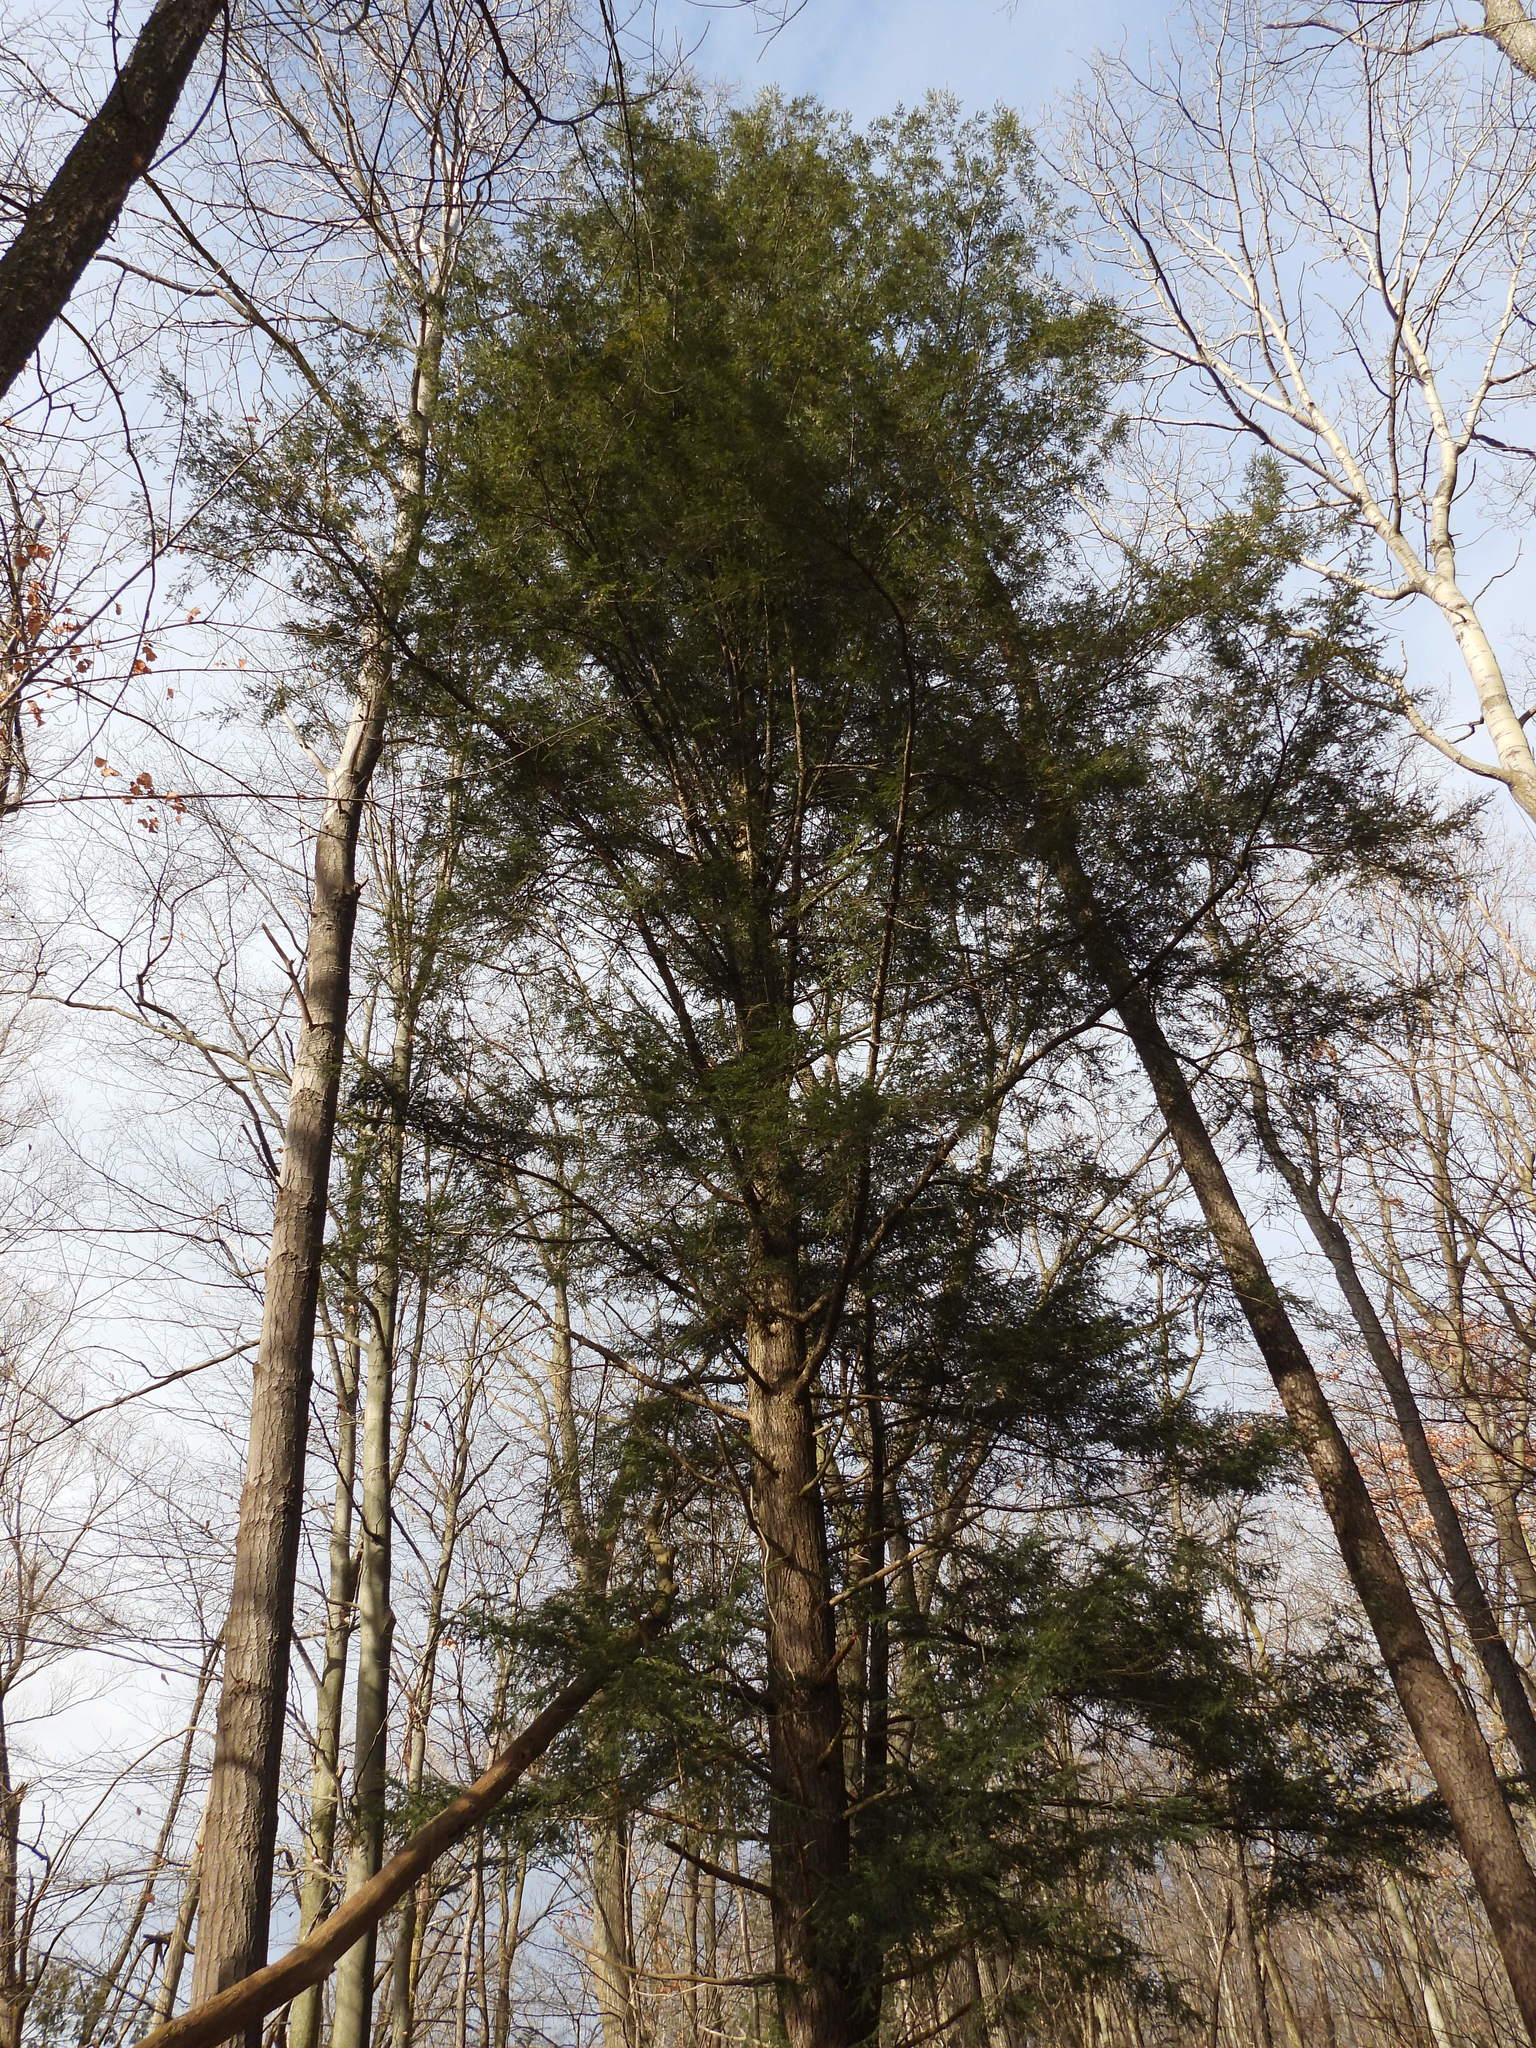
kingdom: Plantae
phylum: Tracheophyta
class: Pinopsida
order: Pinales
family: Pinaceae
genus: Tsuga
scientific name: Tsuga canadensis
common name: Eastern hemlock
